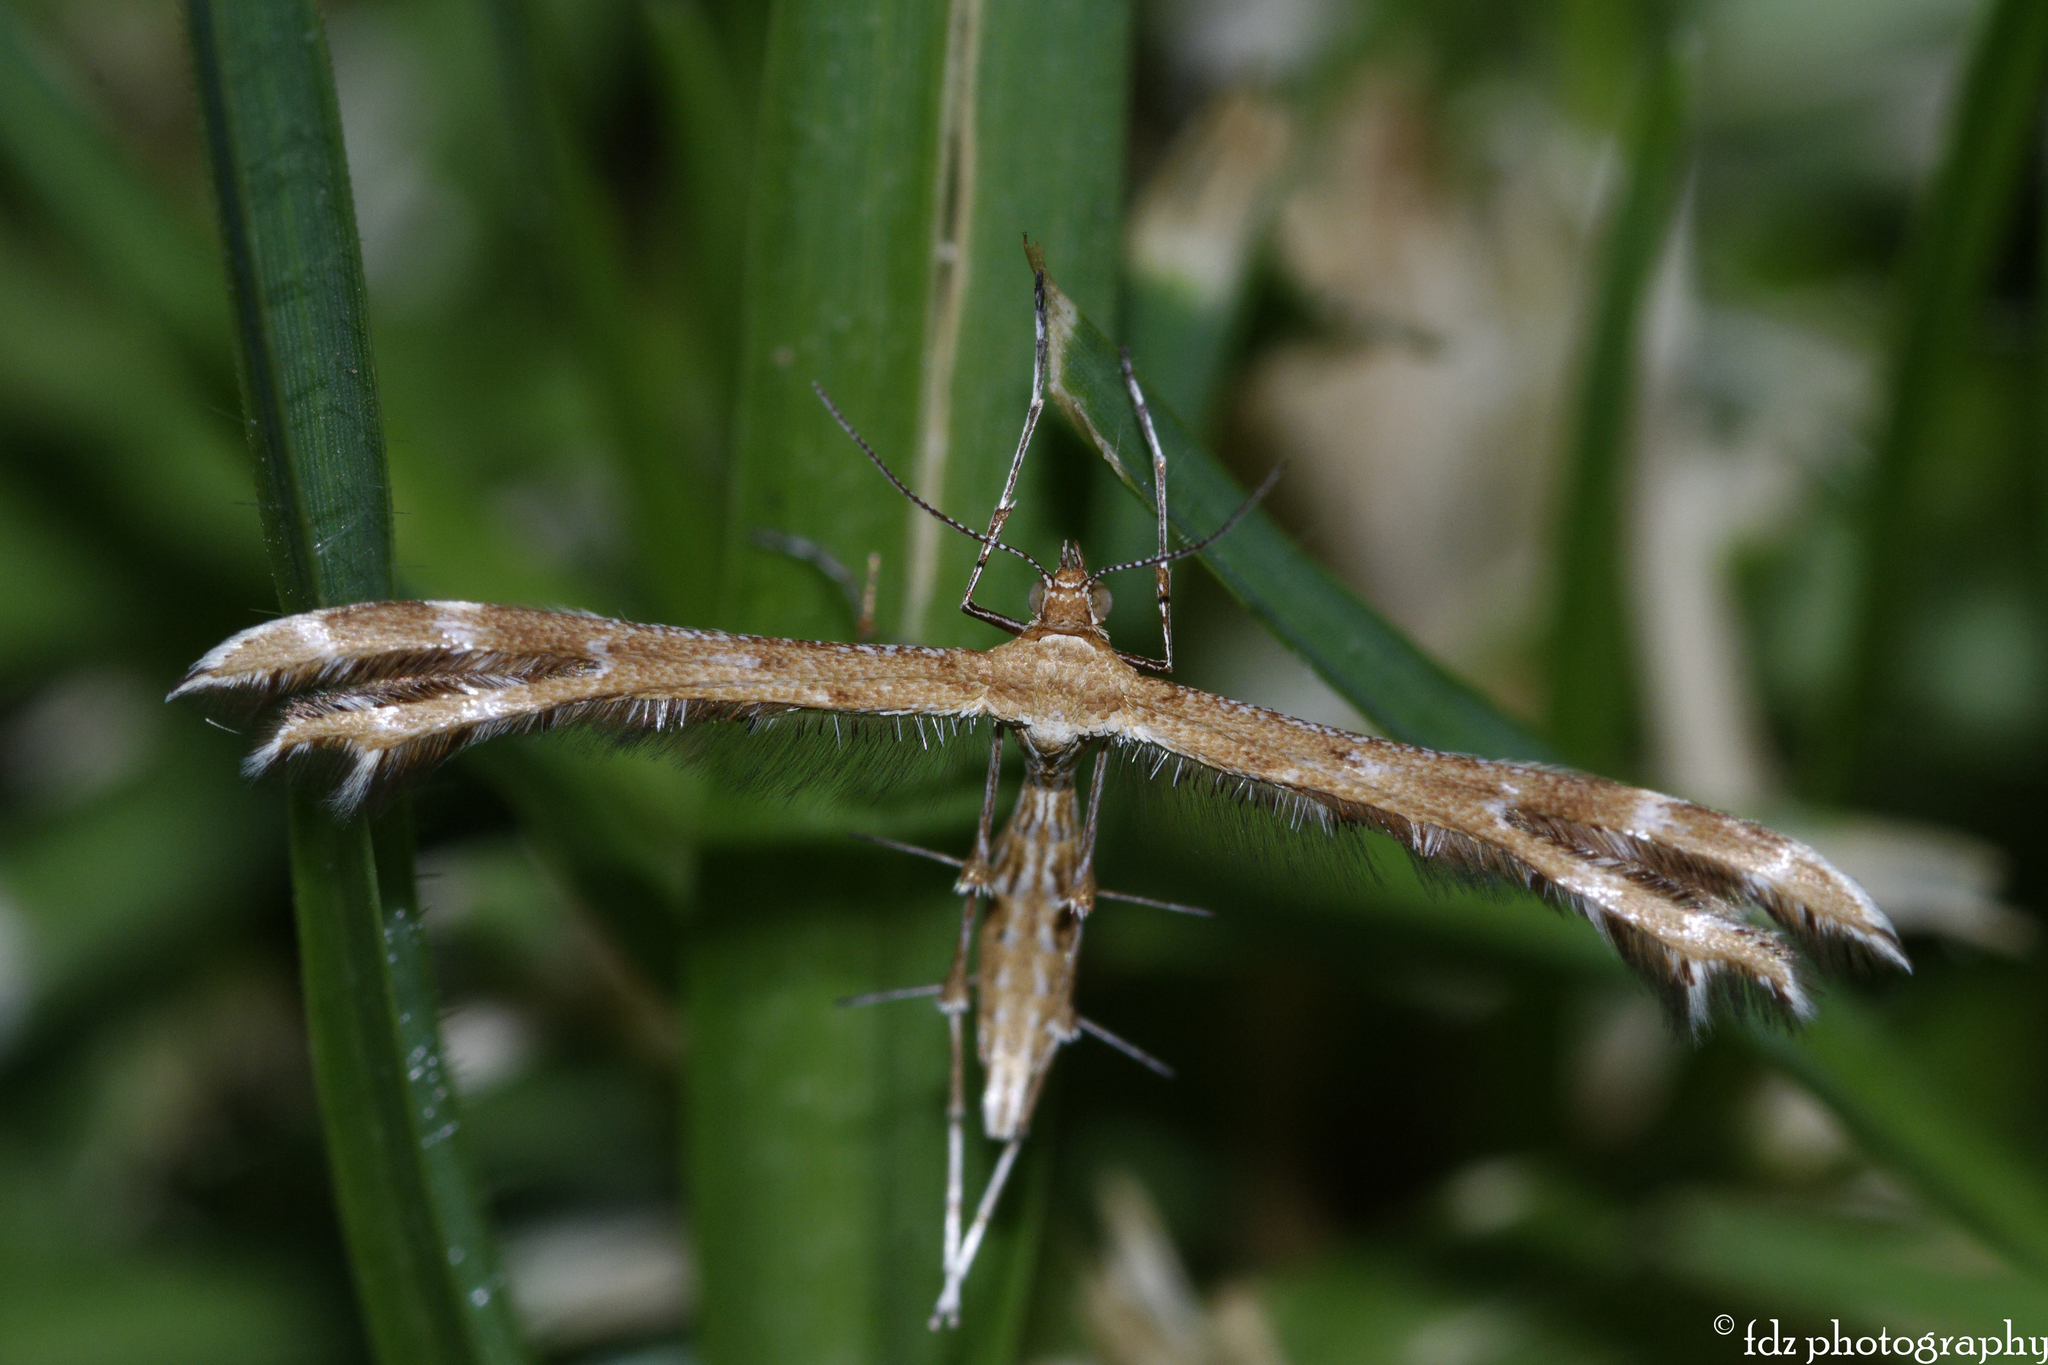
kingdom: Animalia
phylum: Arthropoda
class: Insecta
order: Lepidoptera
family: Pterophoridae
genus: Crombrugghia
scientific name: Crombrugghia laetus
